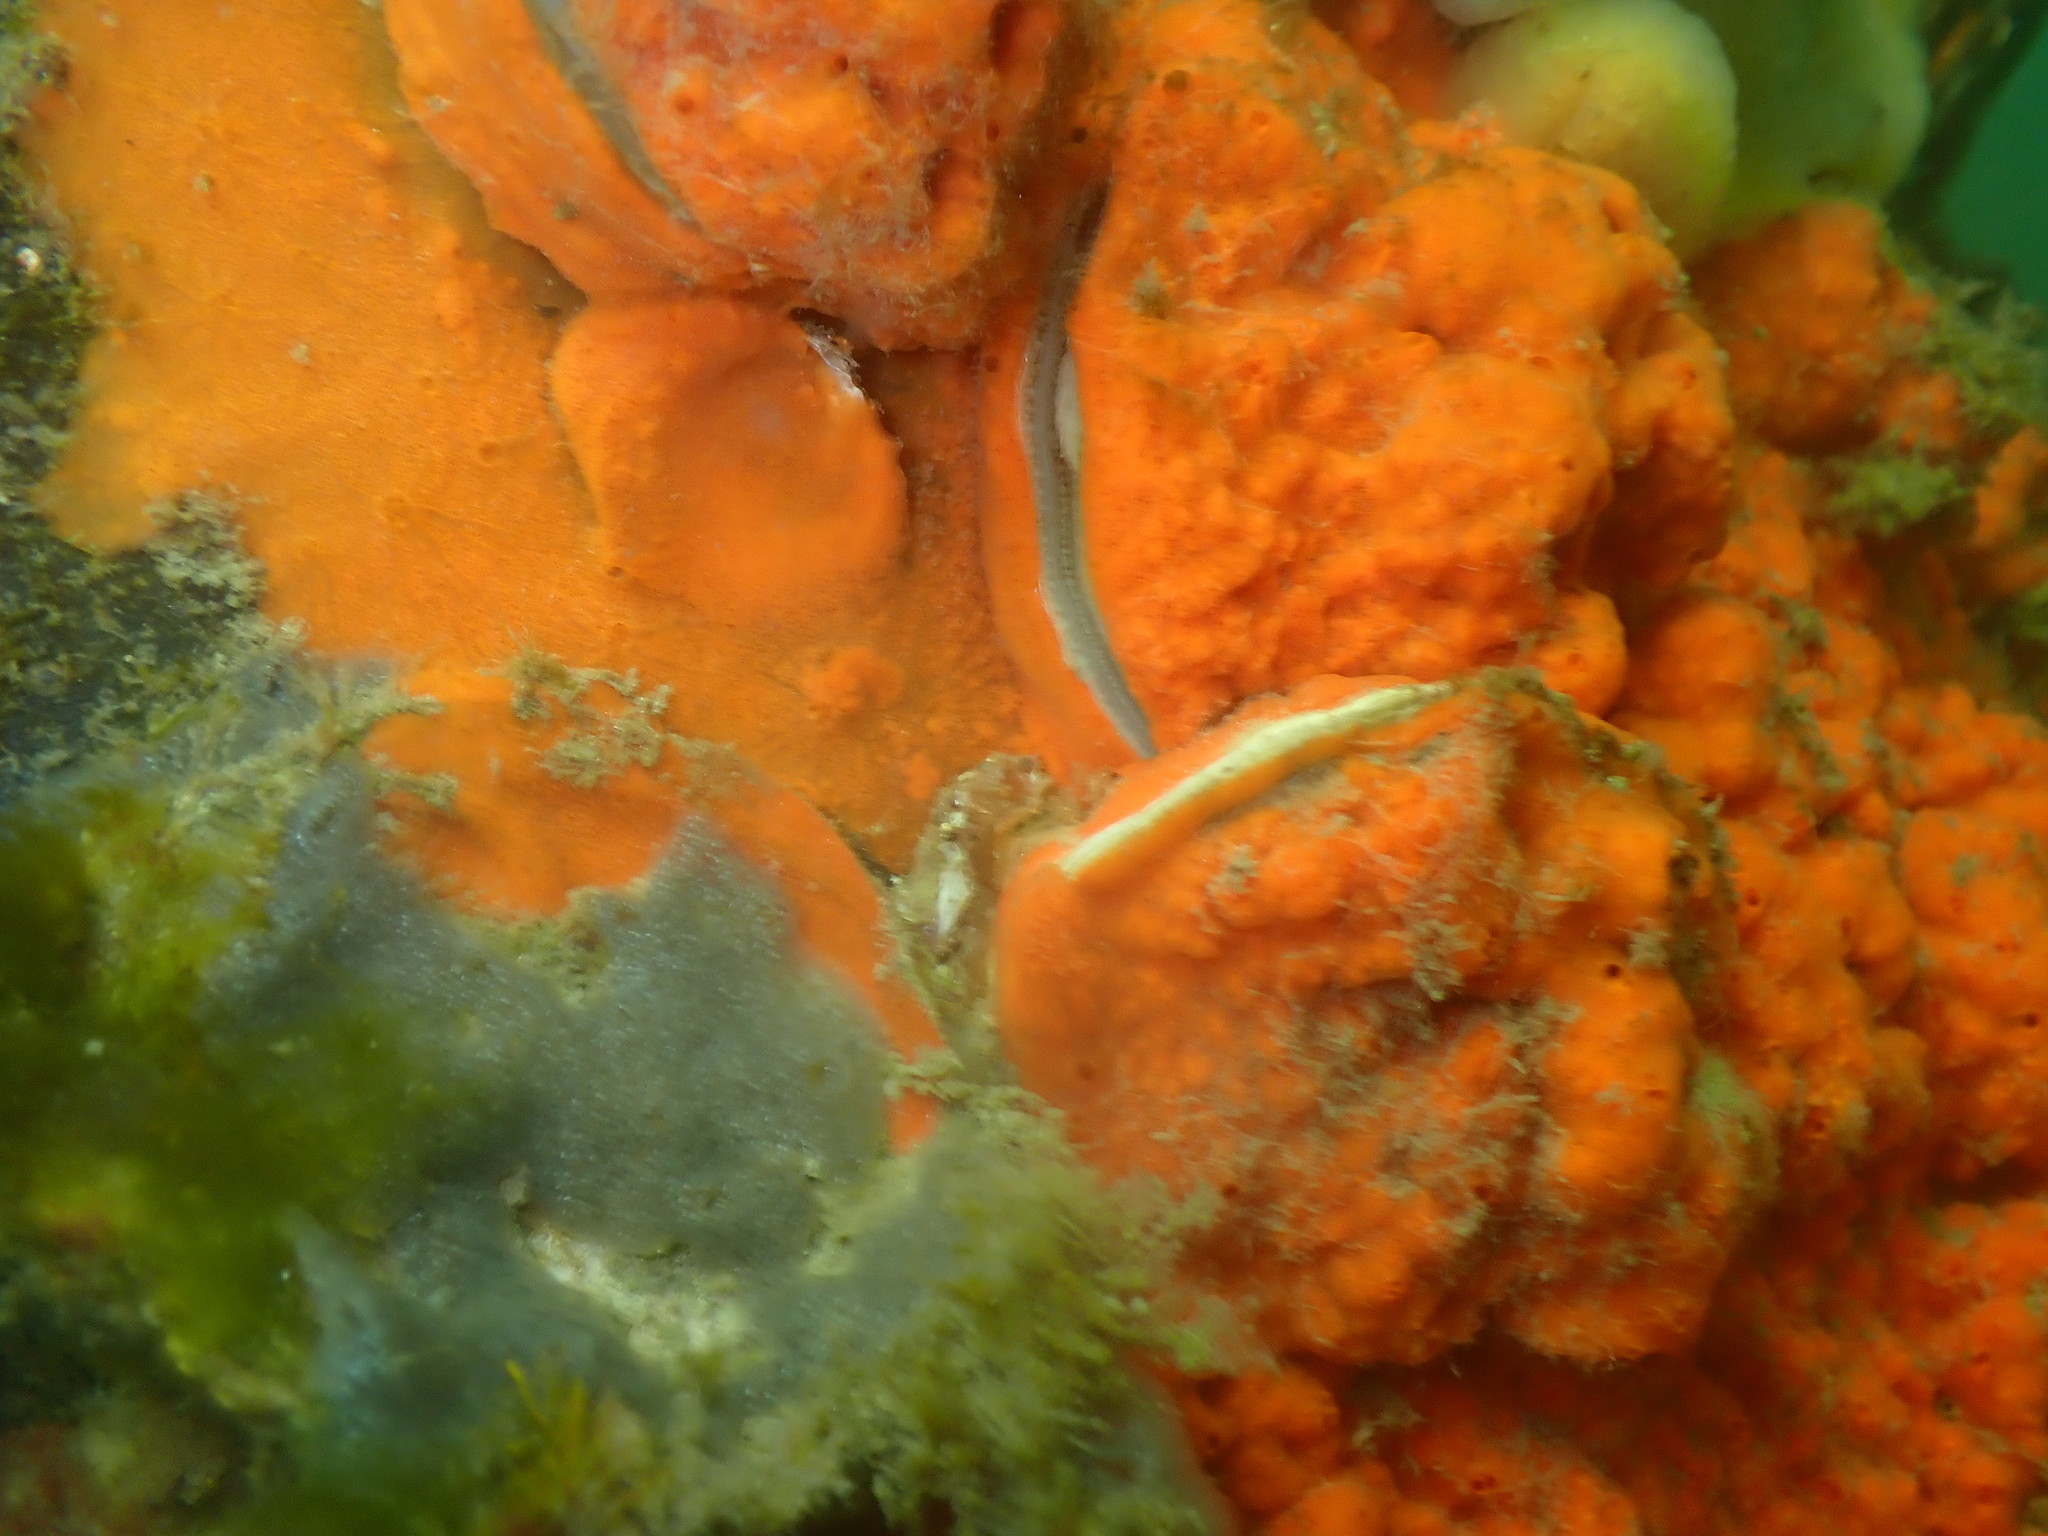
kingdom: Animalia
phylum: Mollusca
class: Bivalvia
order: Ostreida
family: Ostreidae
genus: Magallana
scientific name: Magallana gigas
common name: Pacific oyster
